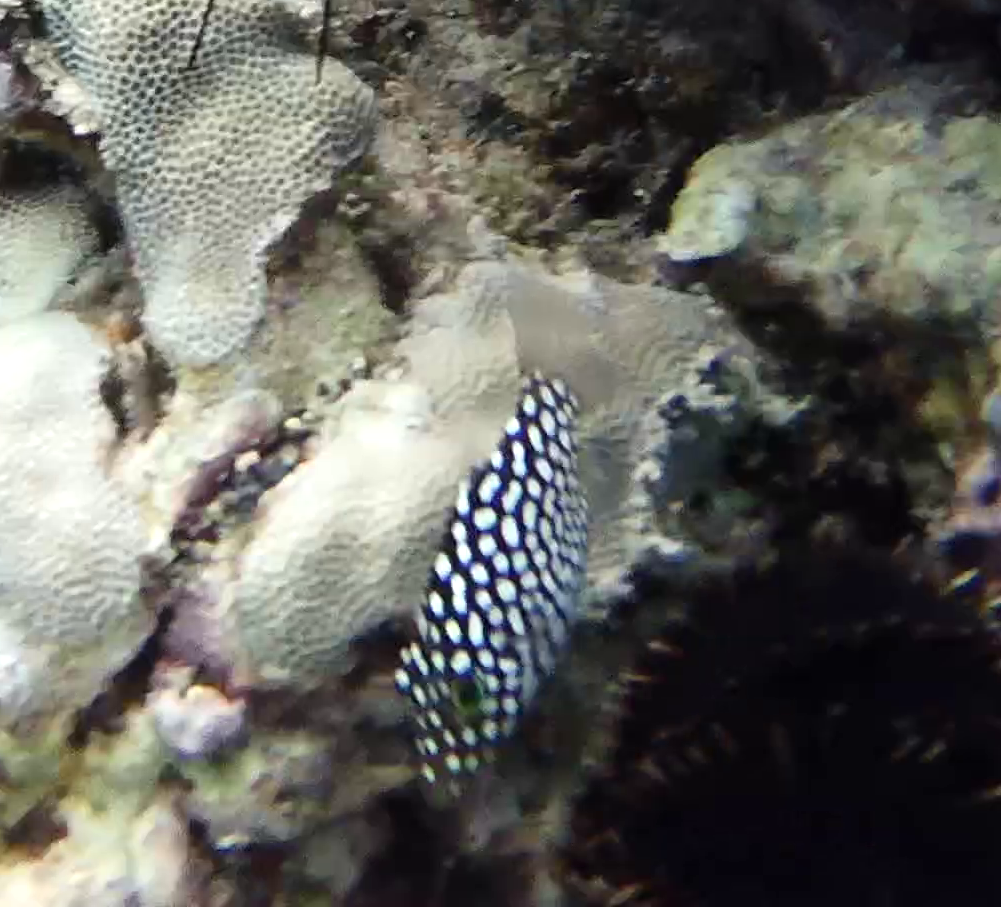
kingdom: Animalia
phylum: Chordata
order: Tetraodontiformes
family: Tetraodontidae
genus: Canthigaster
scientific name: Canthigaster jactator
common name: Hawaiian whitespotted toby
